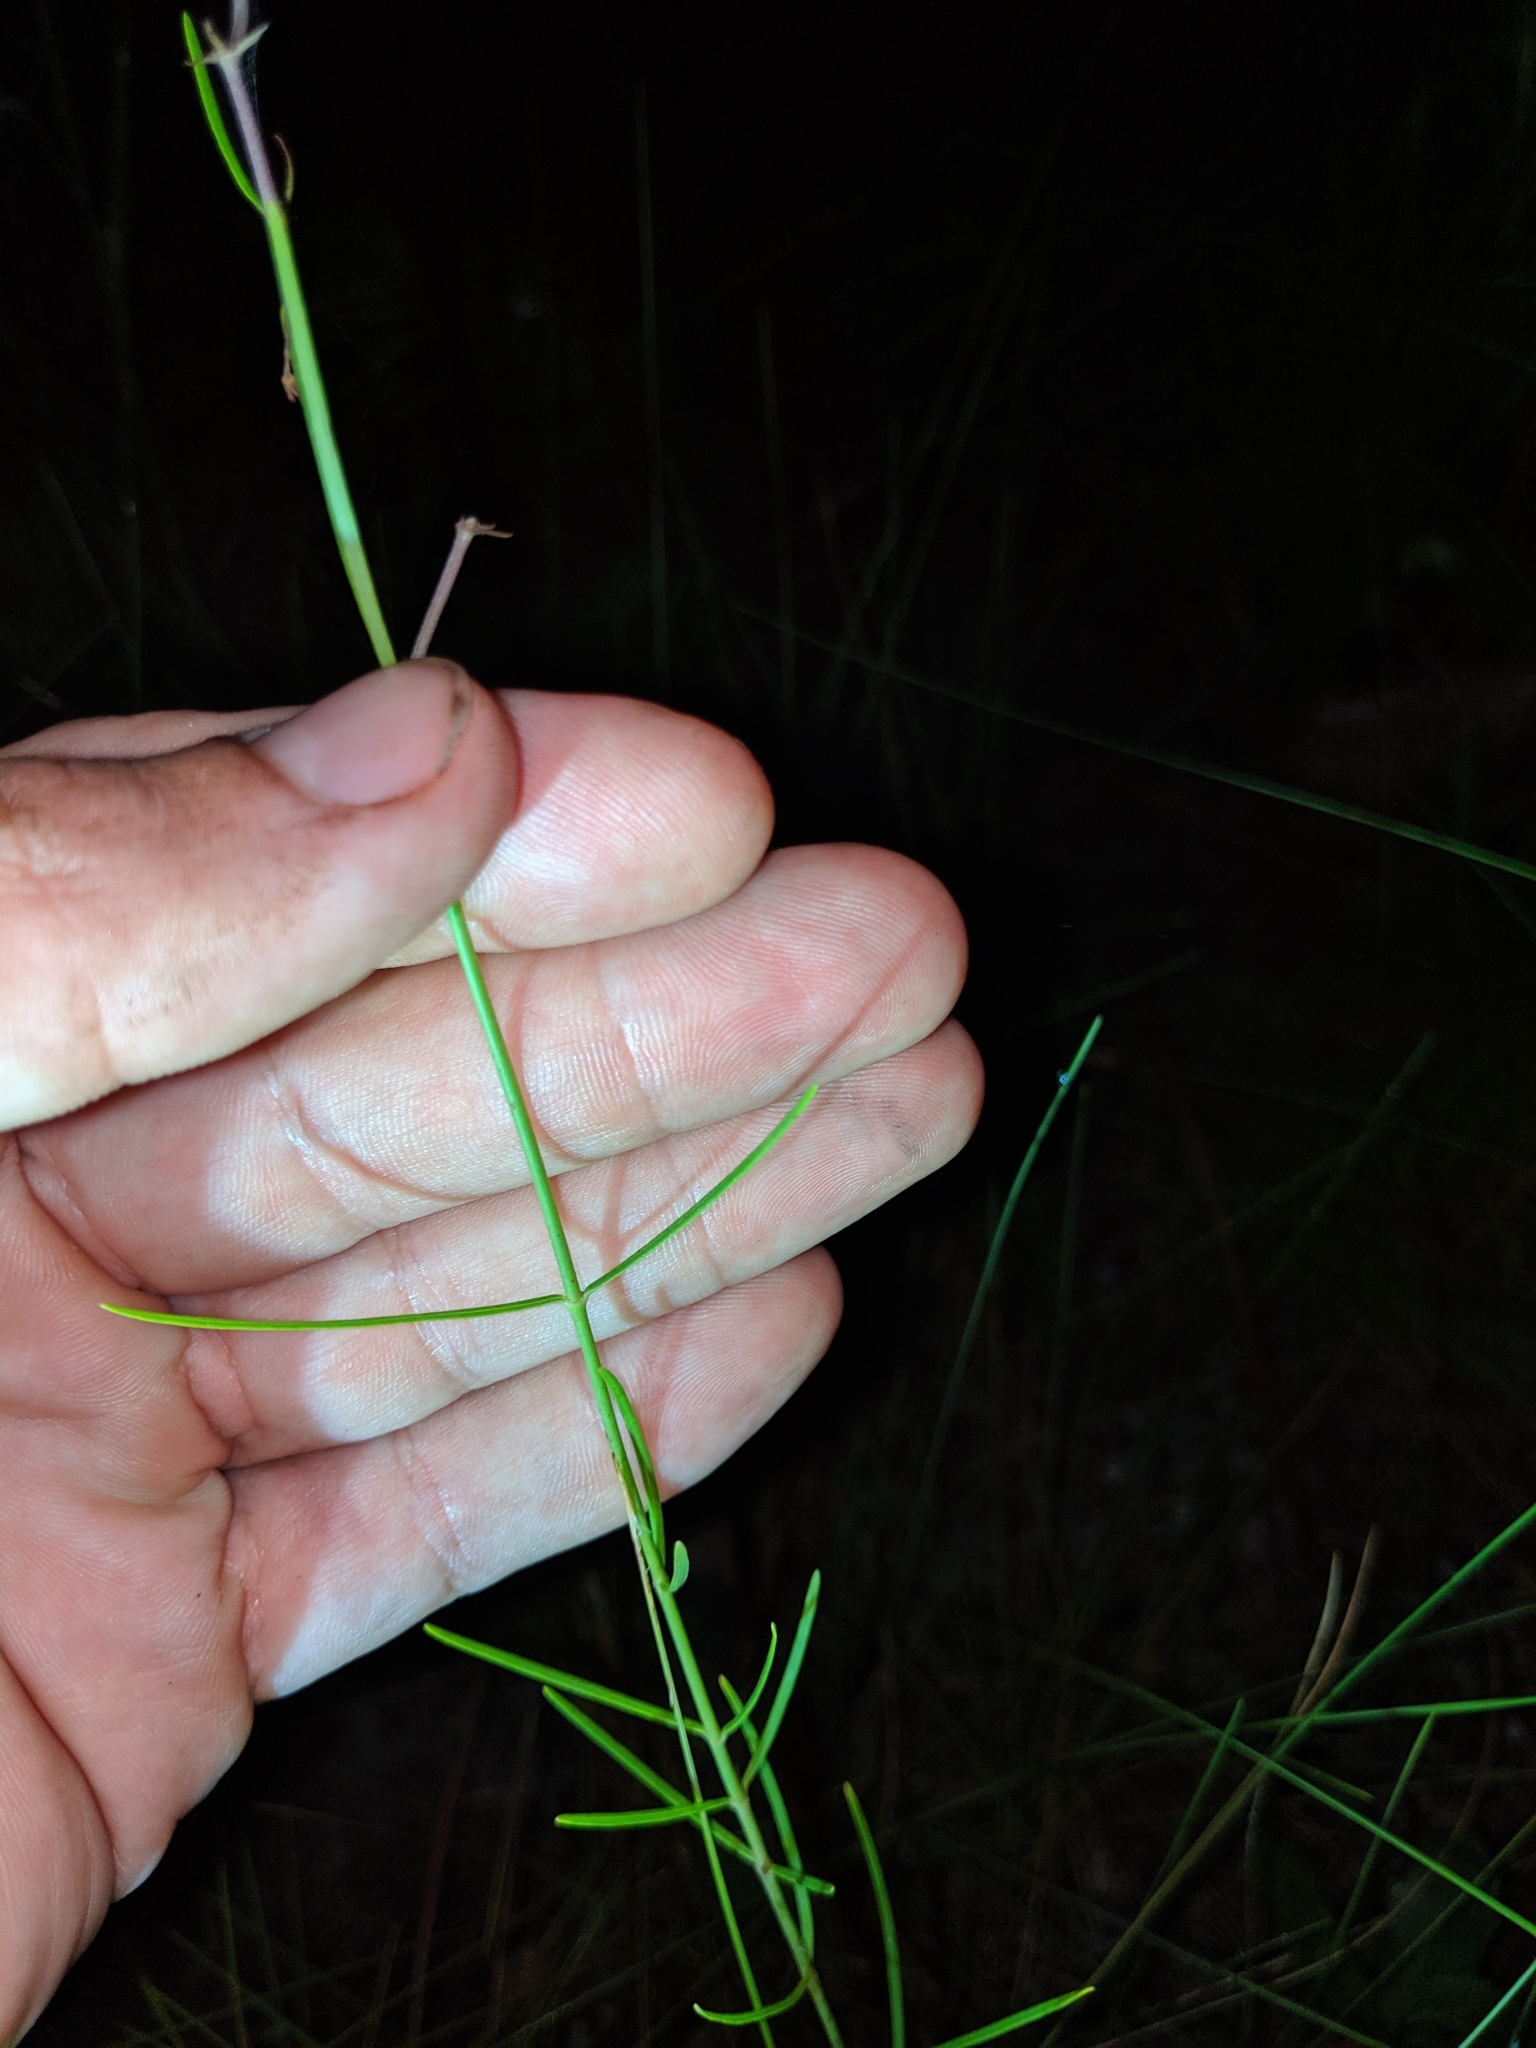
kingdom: Plantae
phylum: Tracheophyta
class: Magnoliopsida
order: Gentianales
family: Apocynaceae
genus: Asclepias
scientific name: Asclepias cinerea
